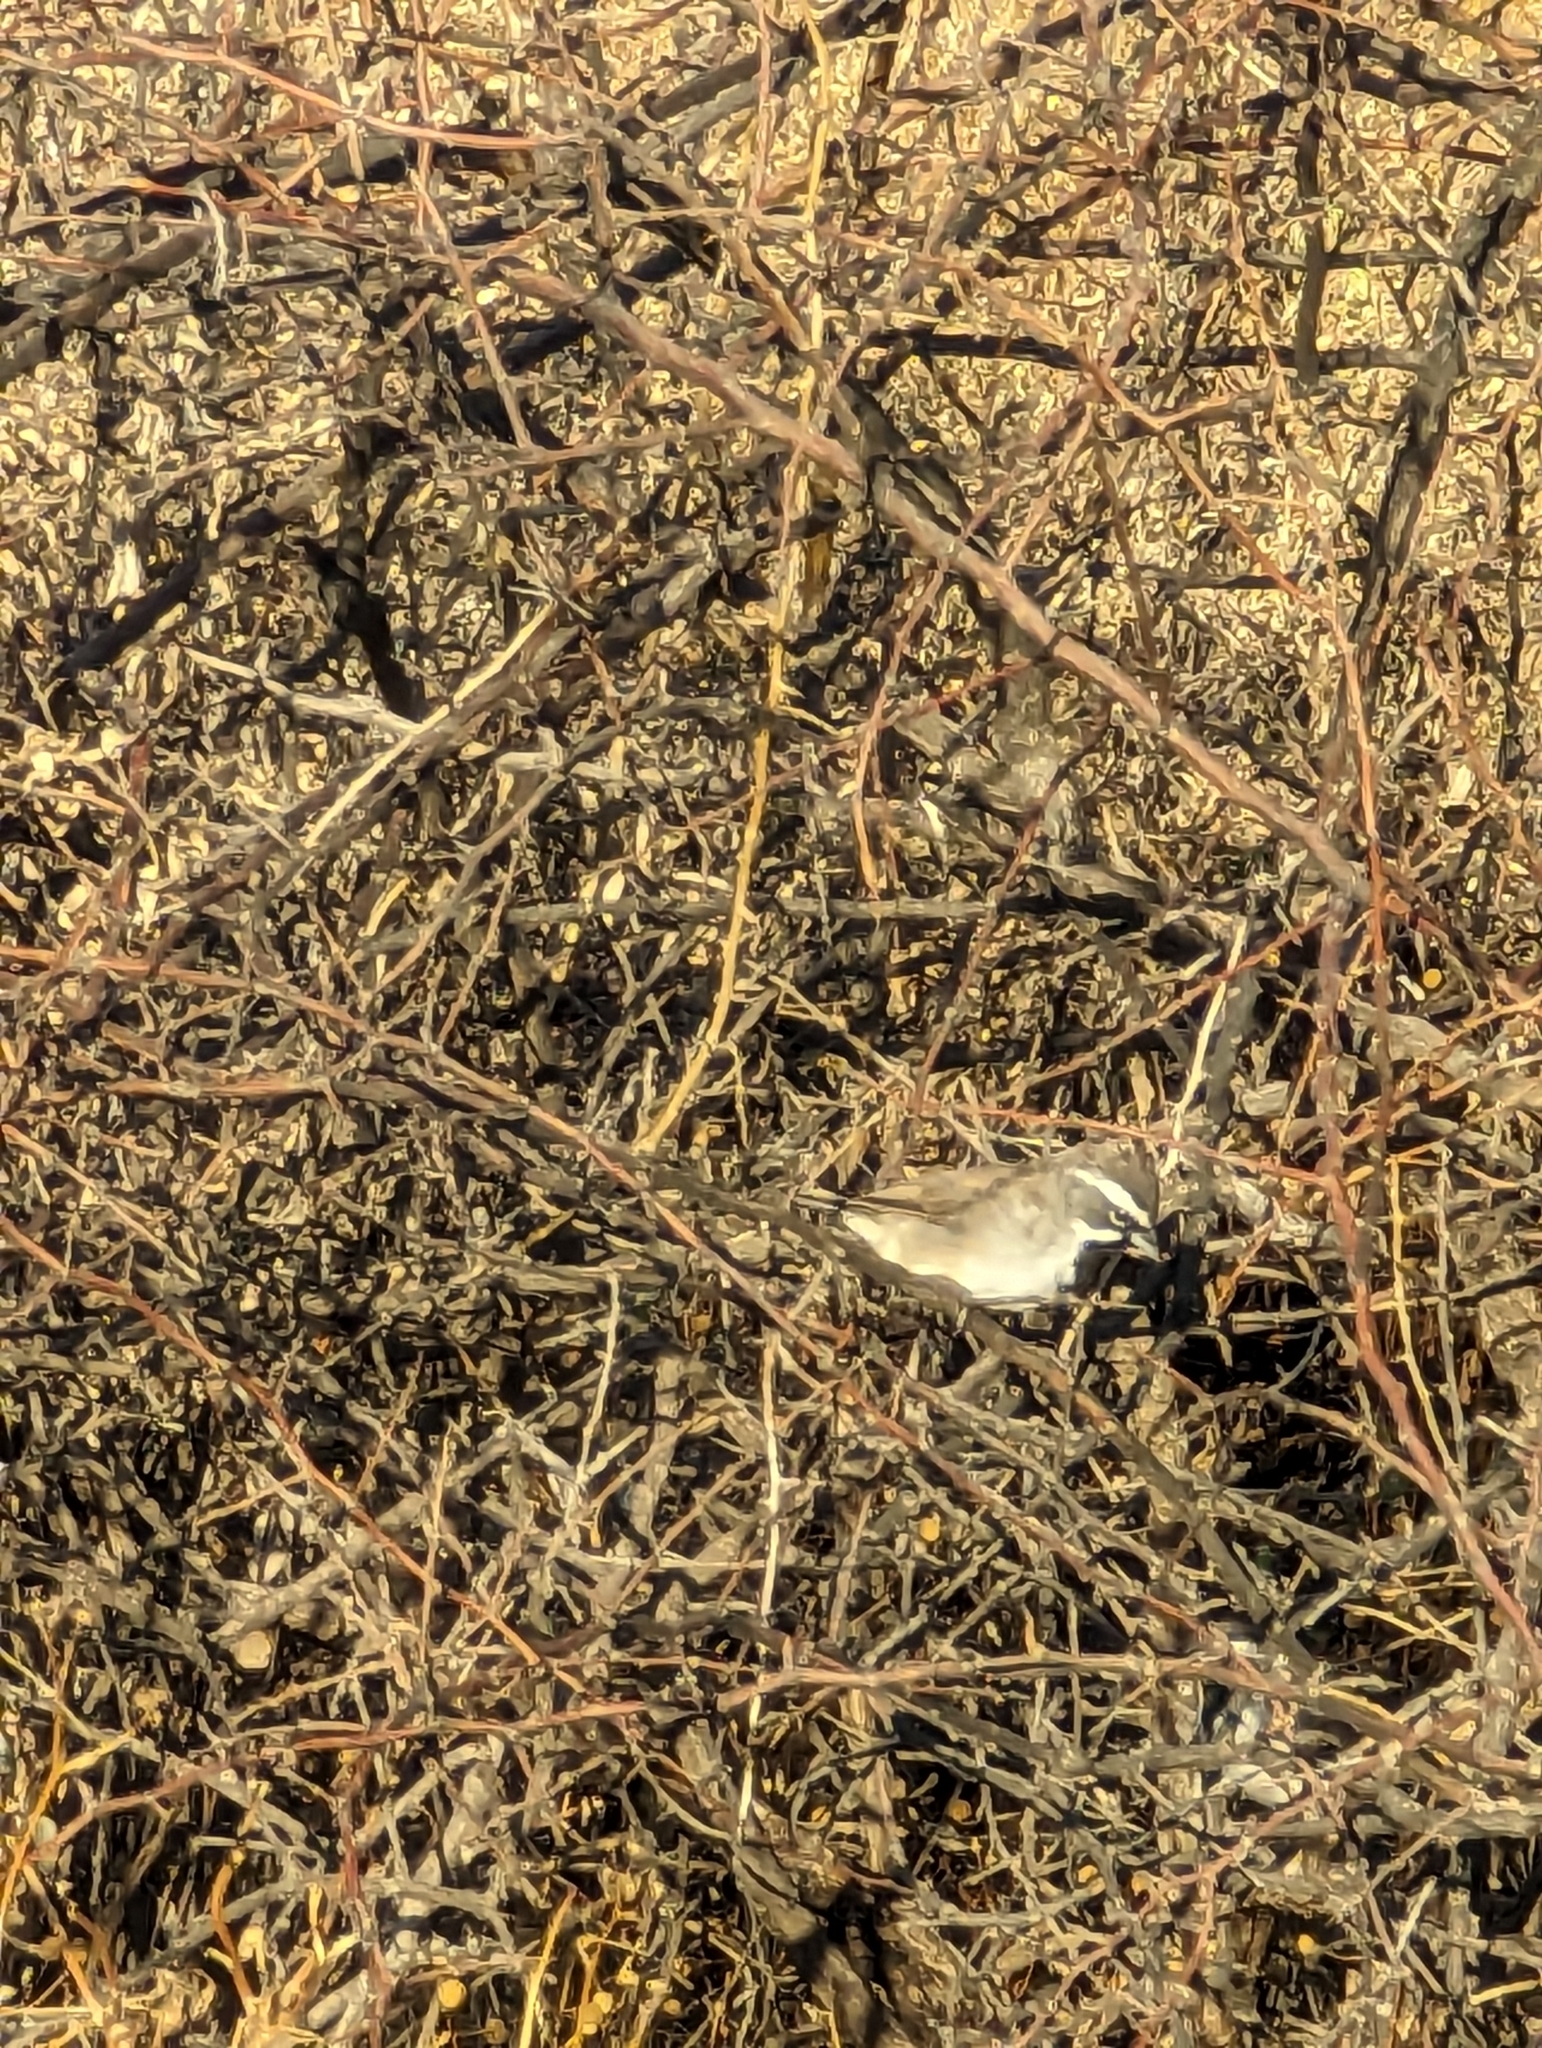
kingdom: Animalia
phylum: Chordata
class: Aves
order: Passeriformes
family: Passerellidae
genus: Amphispiza
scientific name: Amphispiza bilineata
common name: Black-throated sparrow
